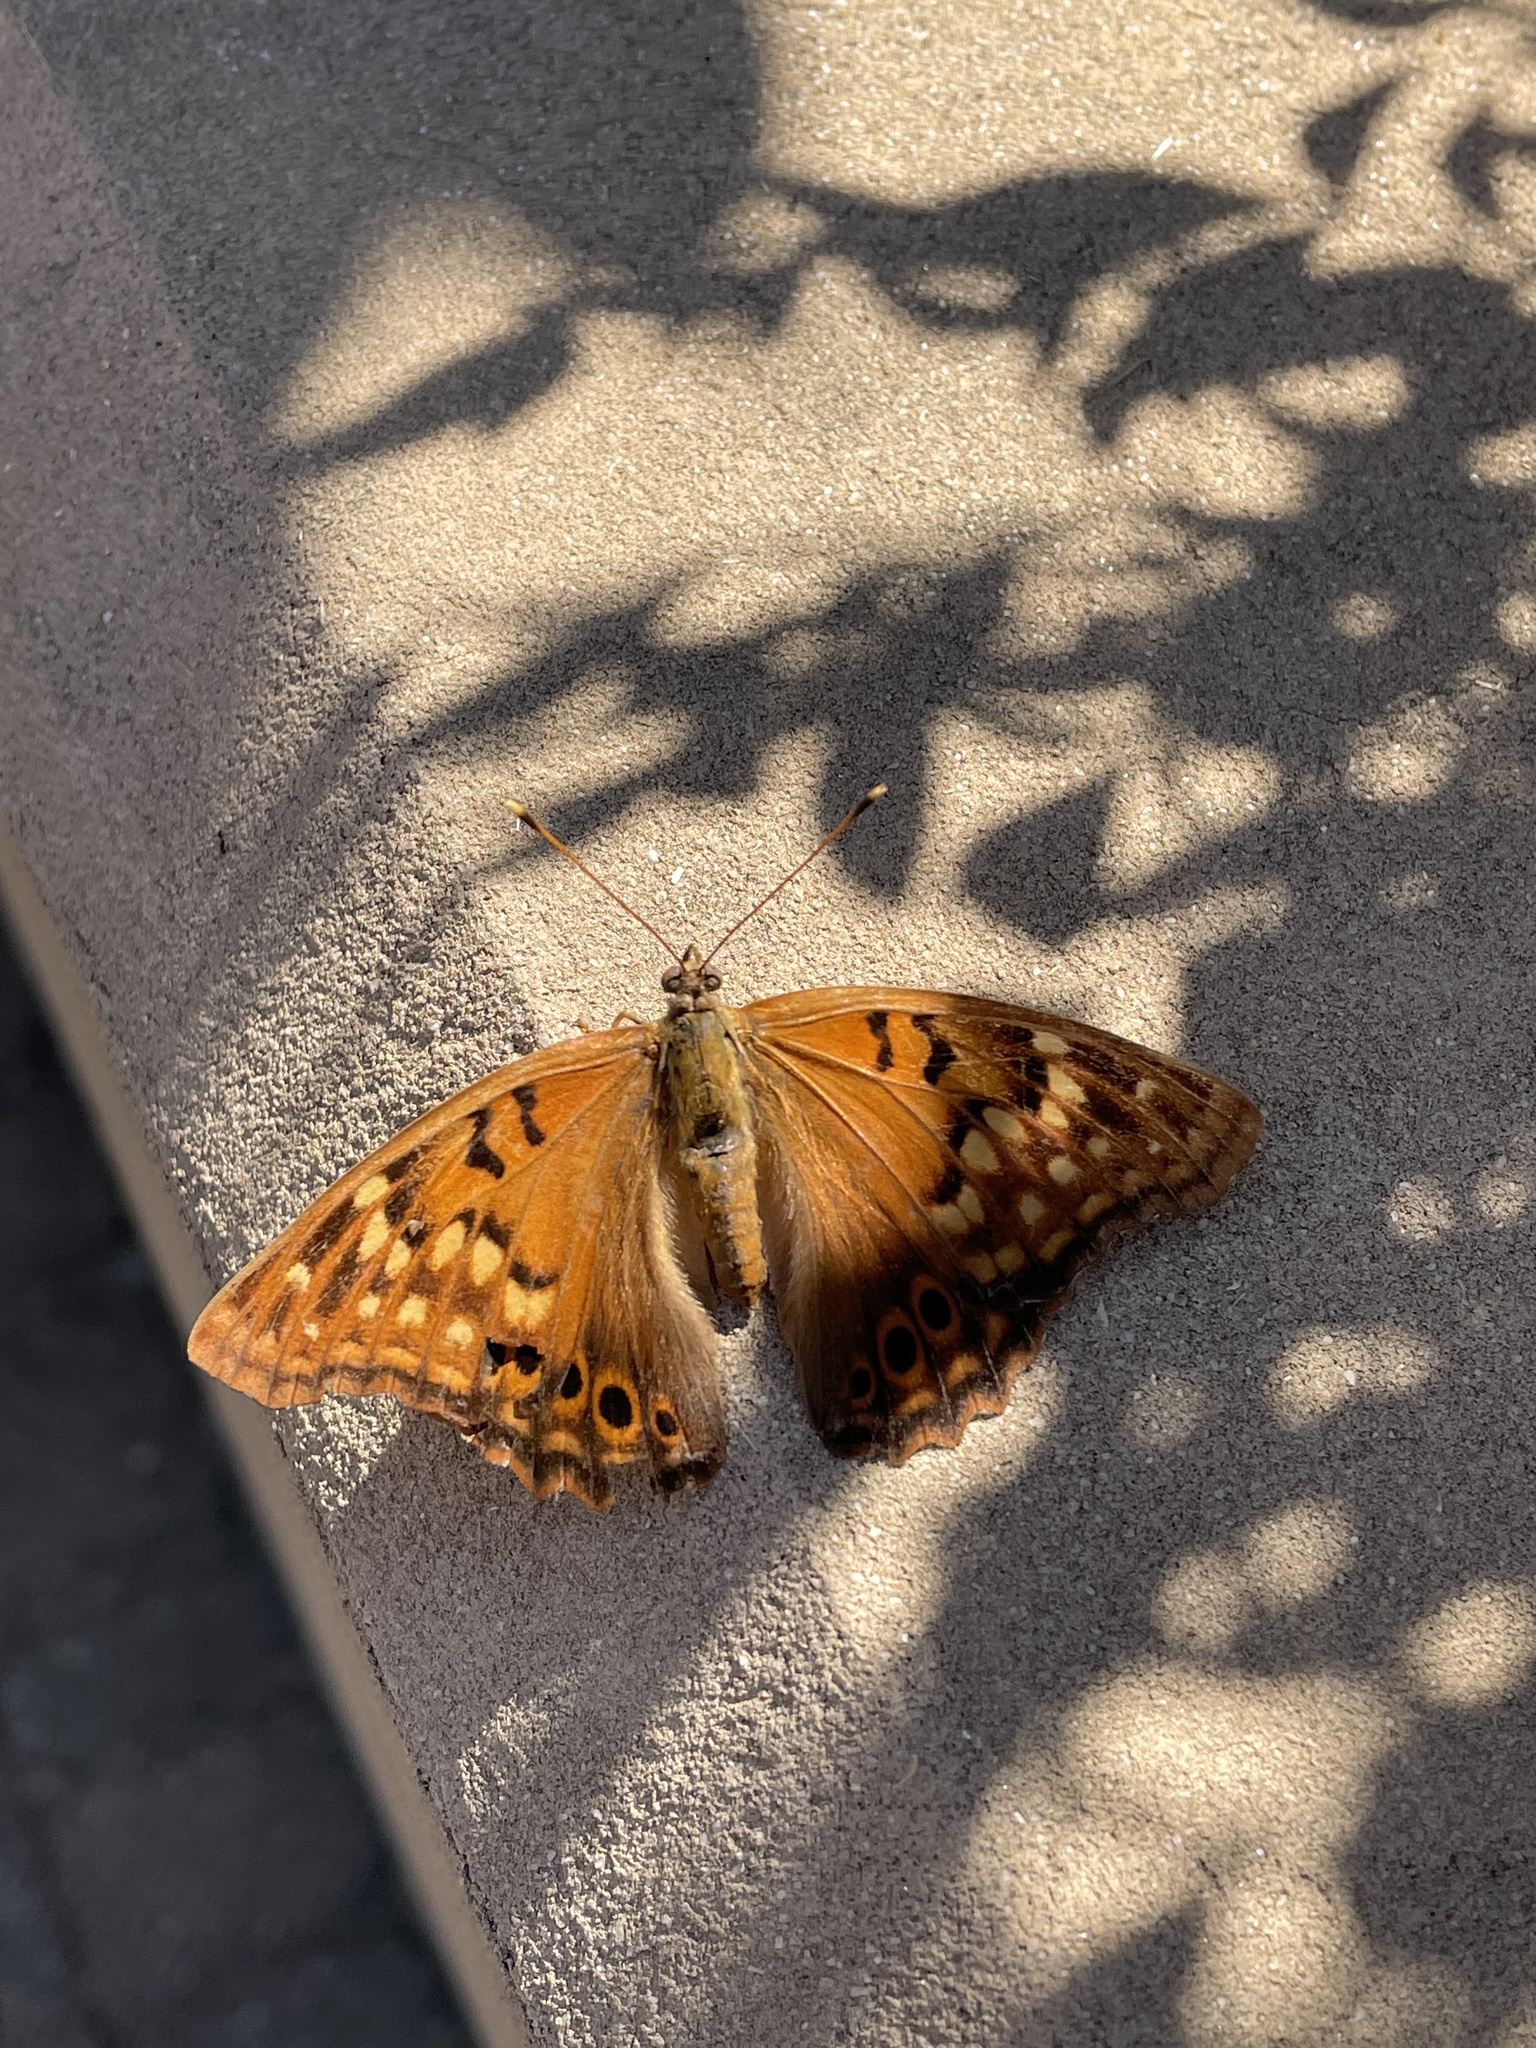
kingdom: Animalia
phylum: Arthropoda
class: Insecta
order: Lepidoptera
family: Nymphalidae
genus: Asterocampa
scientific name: Asterocampa clyton
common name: Tawny emperor
